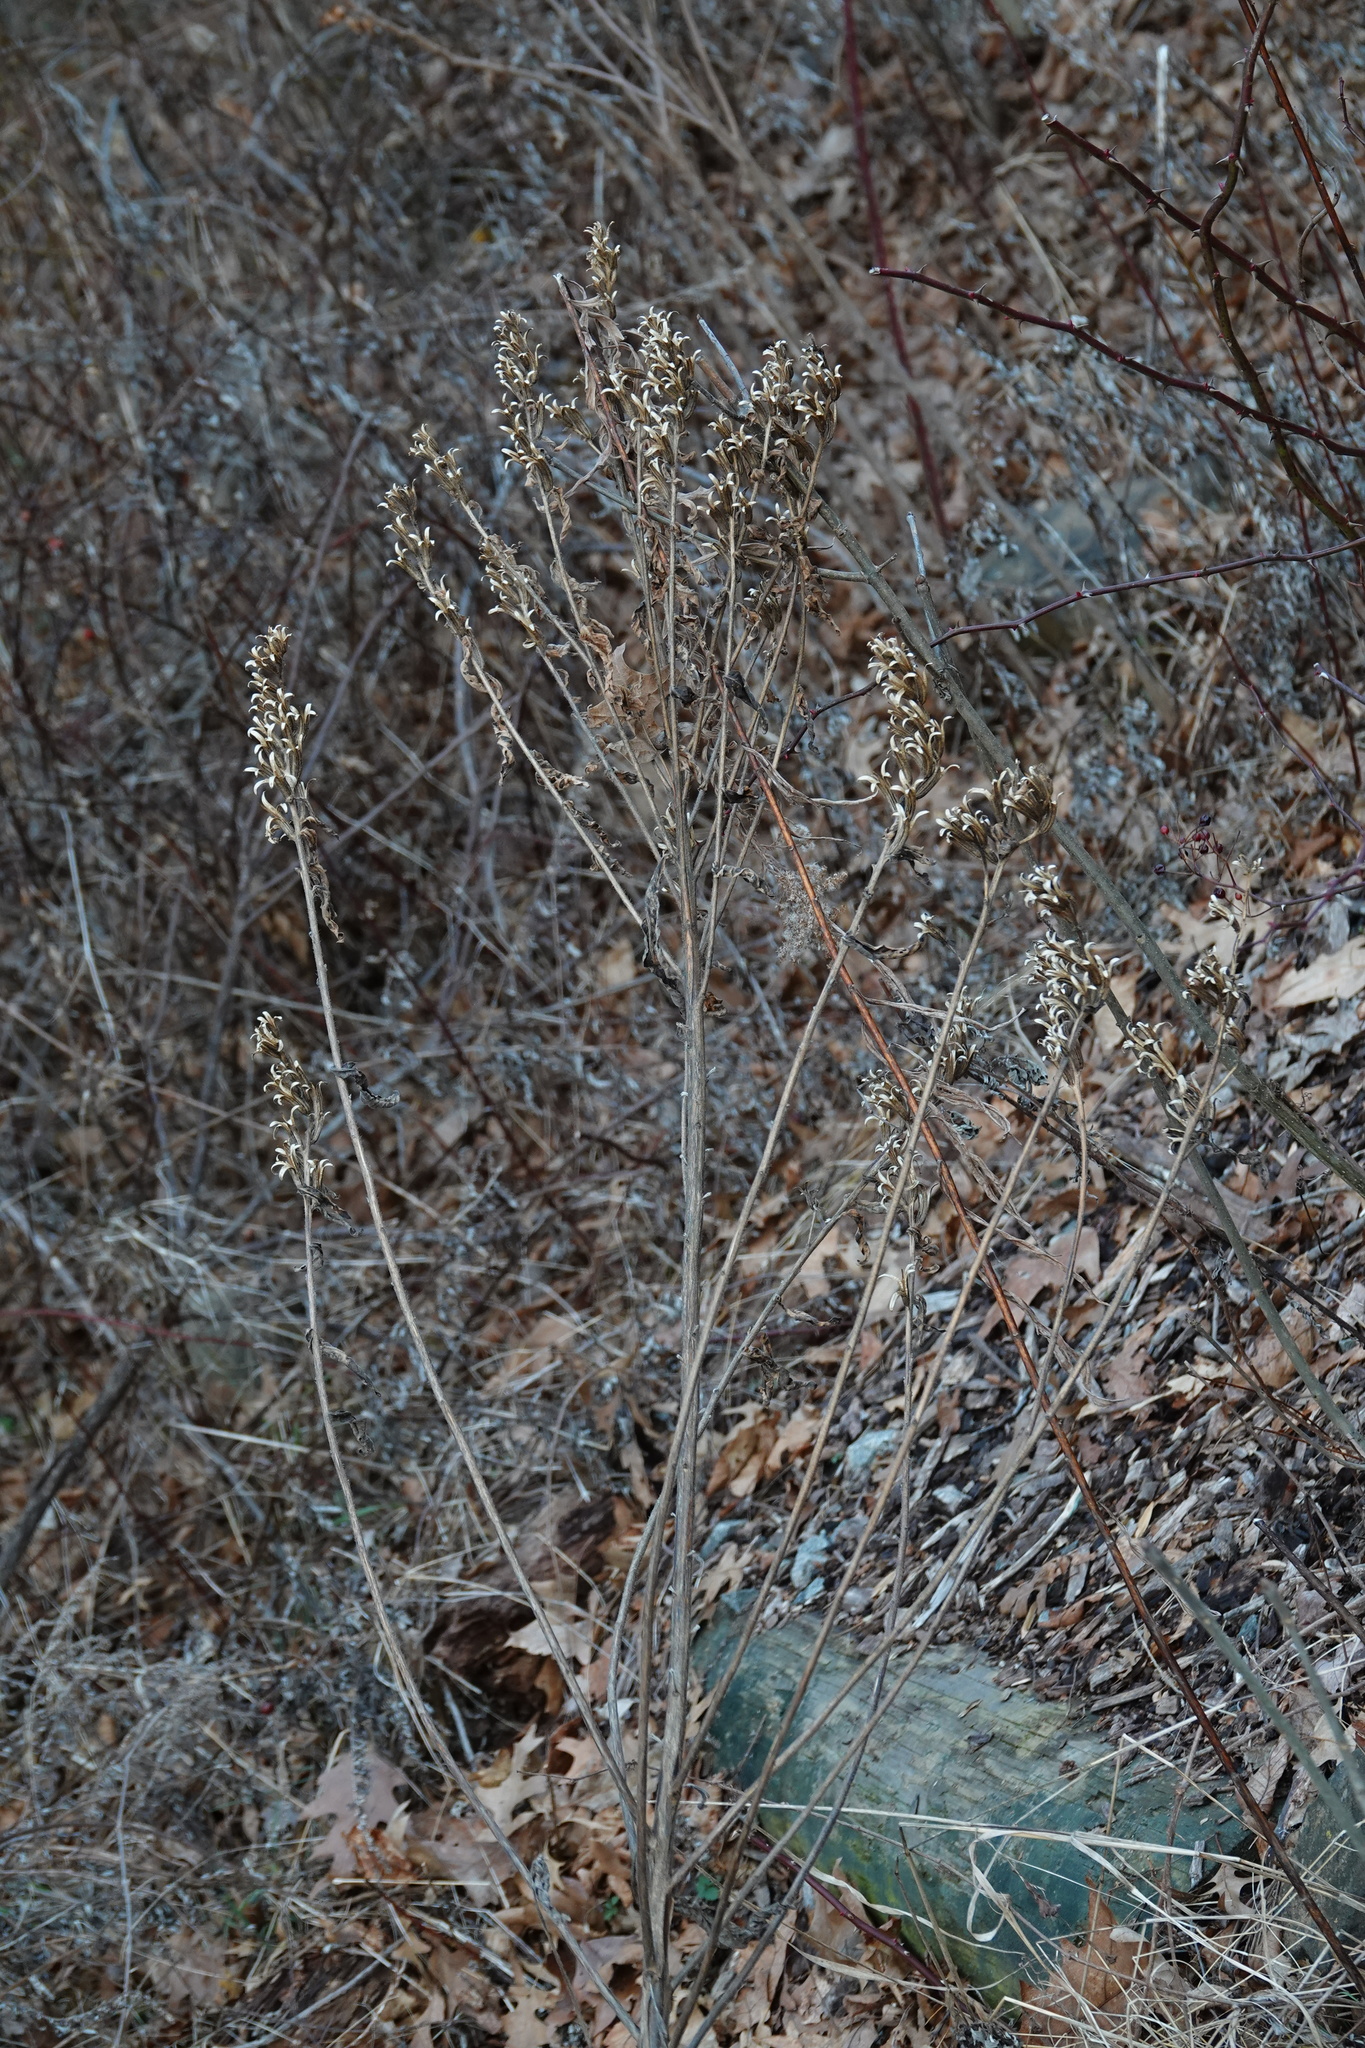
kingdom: Plantae
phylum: Tracheophyta
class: Magnoliopsida
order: Myrtales
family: Onagraceae
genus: Oenothera
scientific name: Oenothera biennis
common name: Common evening-primrose
